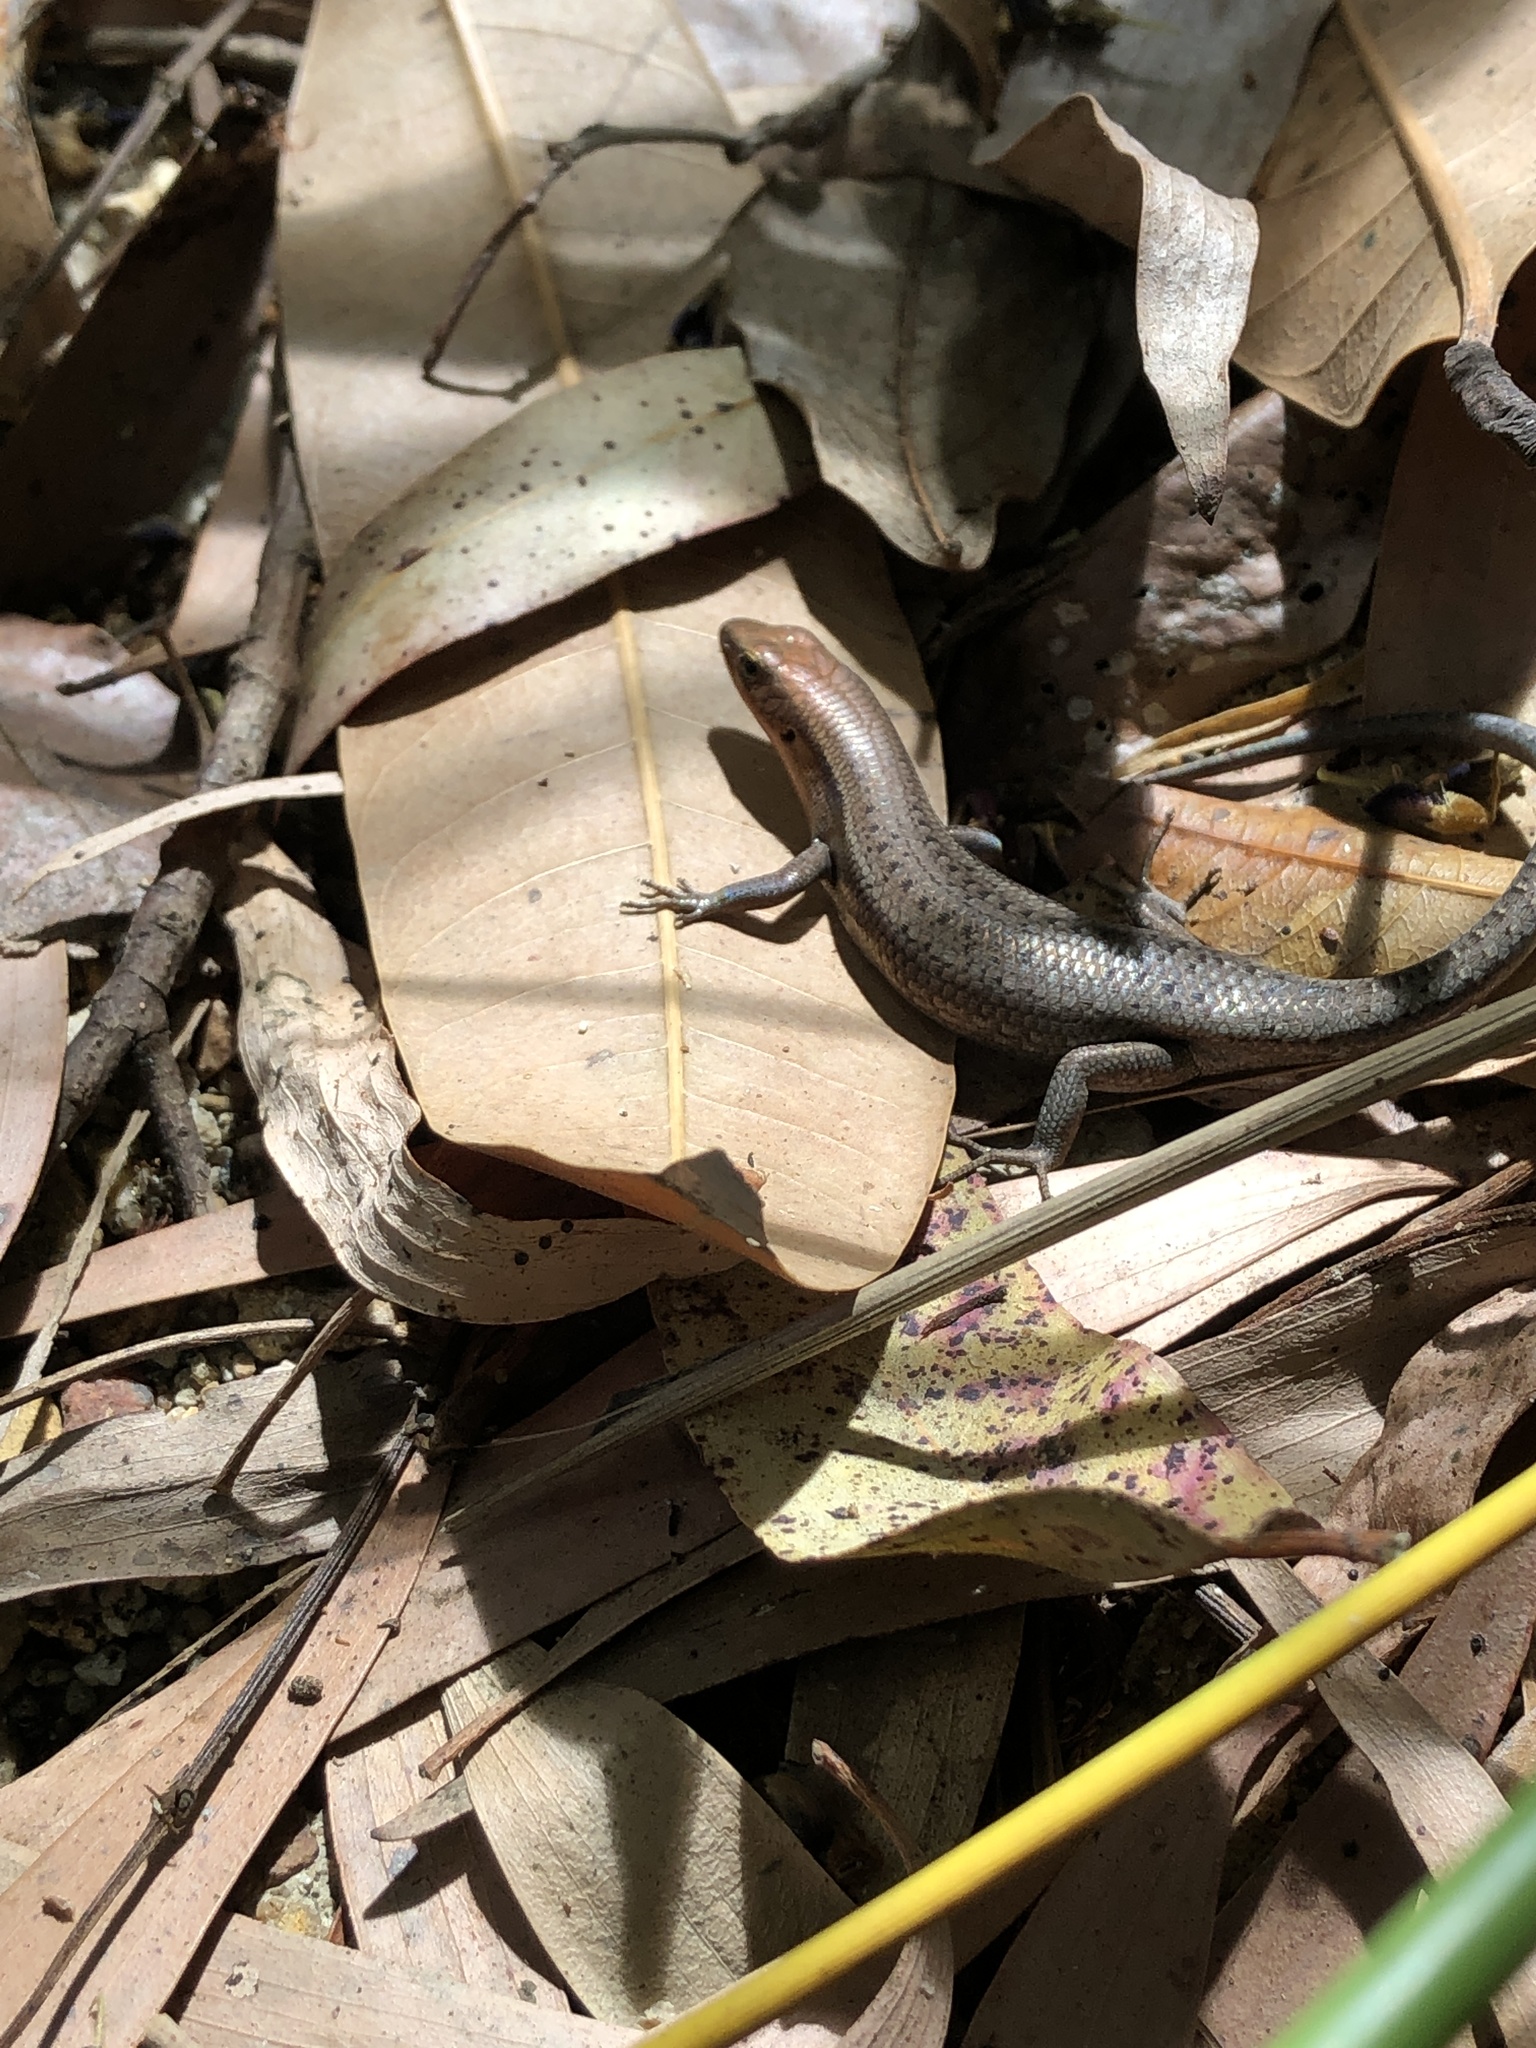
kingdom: Animalia
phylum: Chordata
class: Squamata
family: Scincidae
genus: Carlia
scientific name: Carlia rubrigularis
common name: Northern red-throated skink
